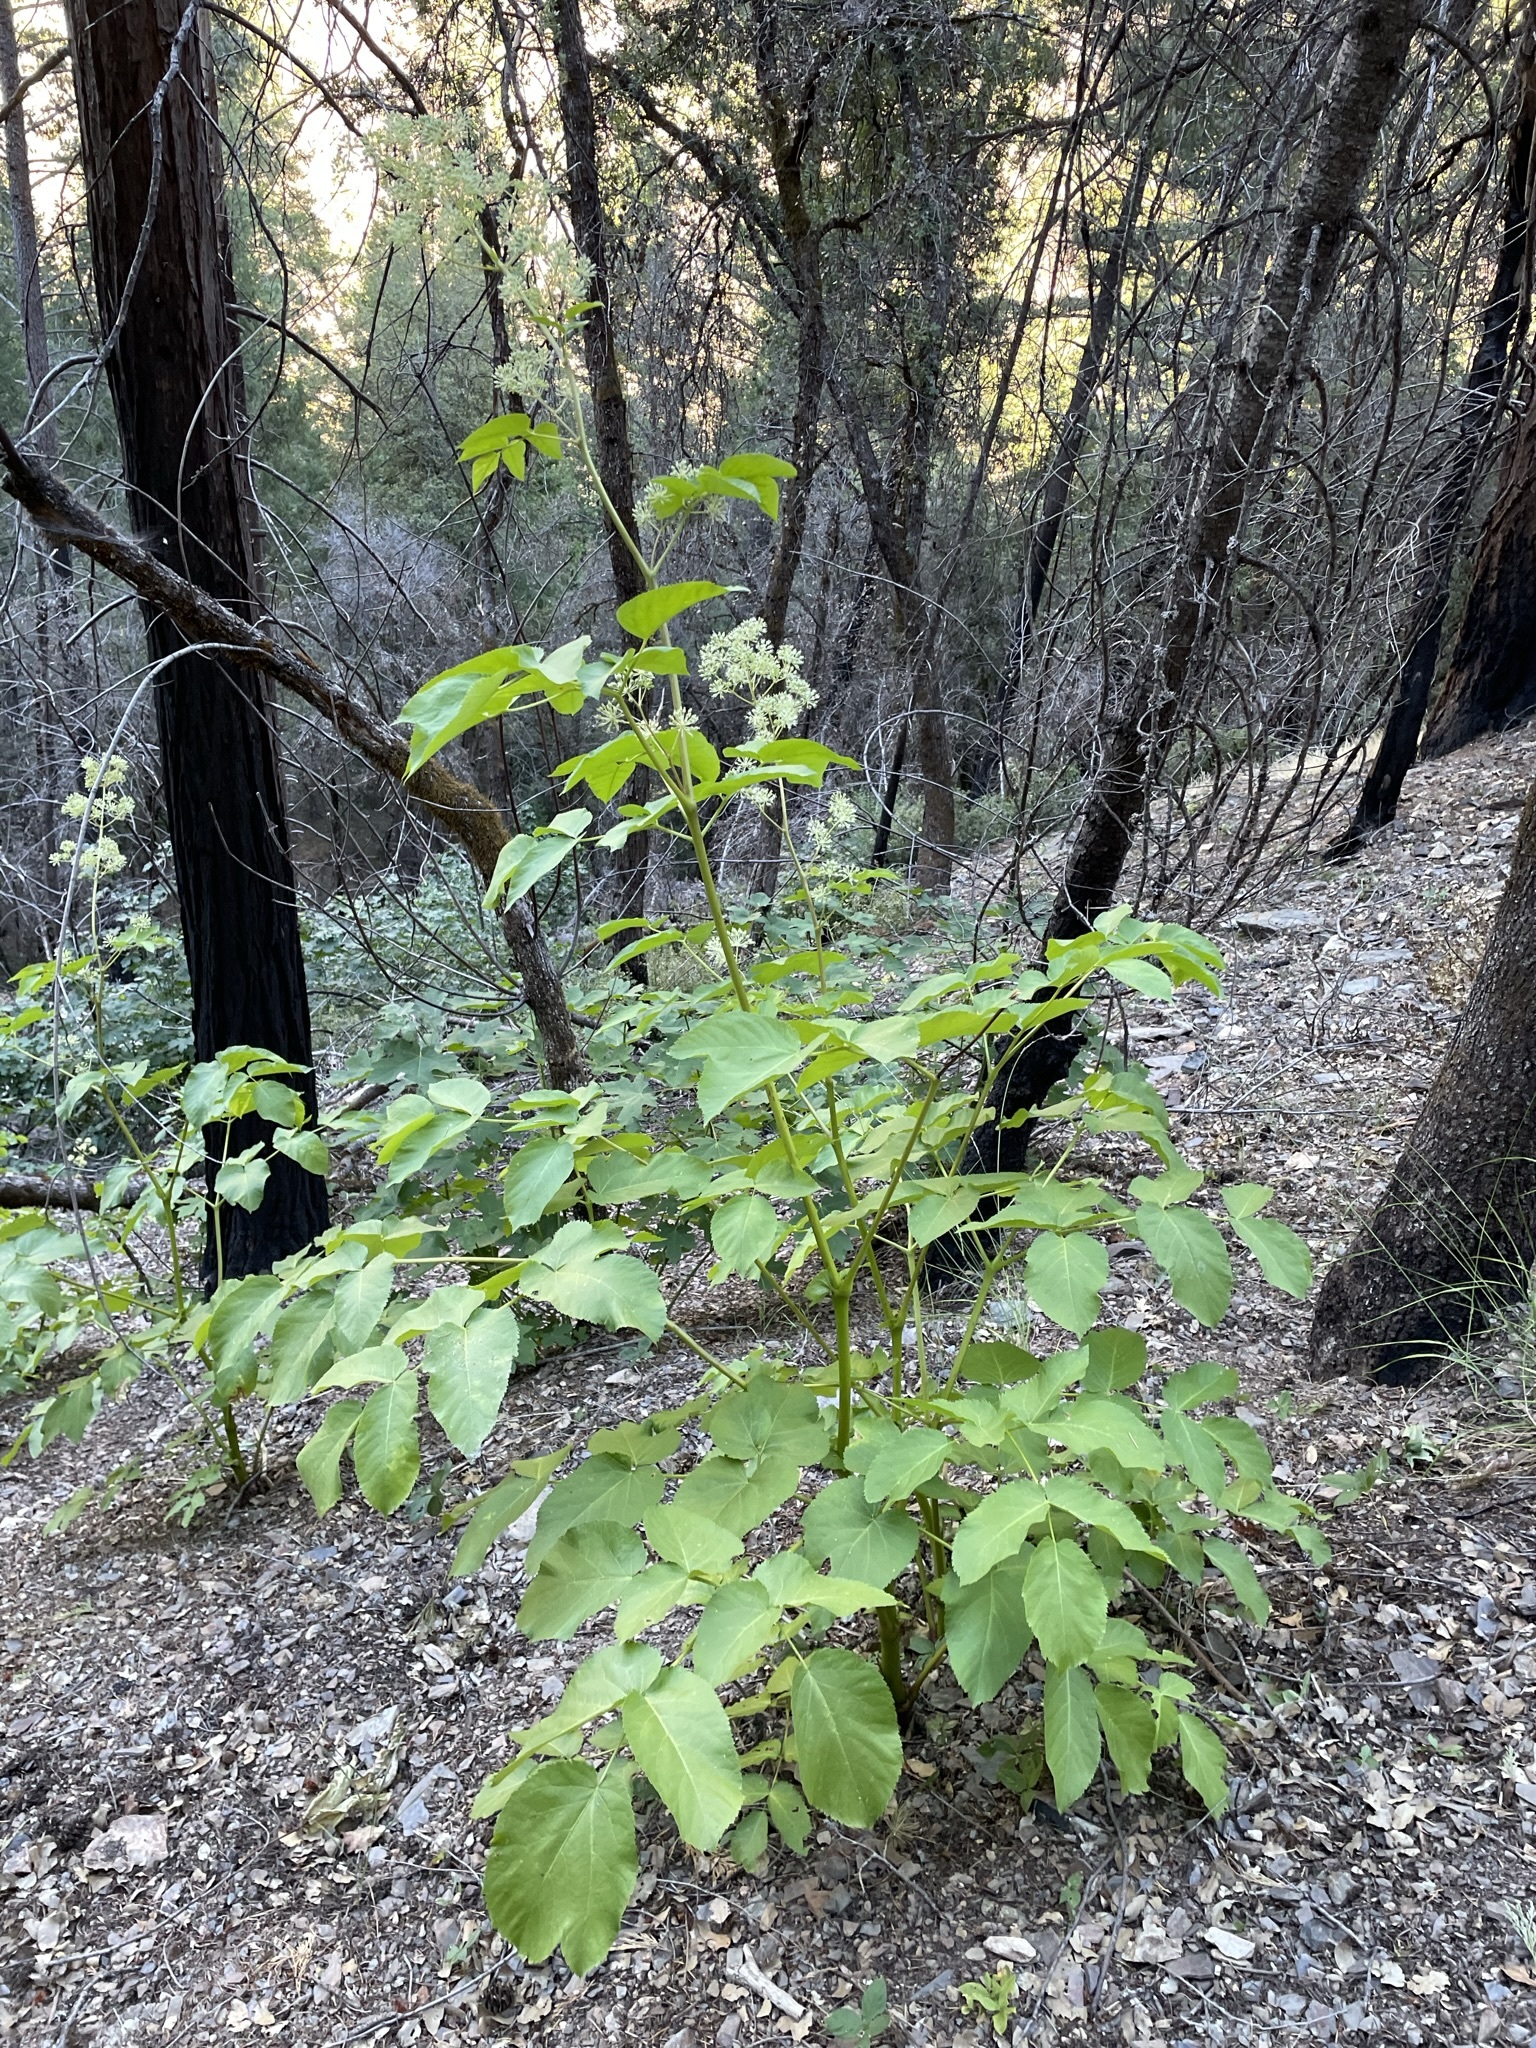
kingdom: Plantae
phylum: Tracheophyta
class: Magnoliopsida
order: Apiales
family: Araliaceae
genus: Aralia
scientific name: Aralia californica
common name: California-ginseng
